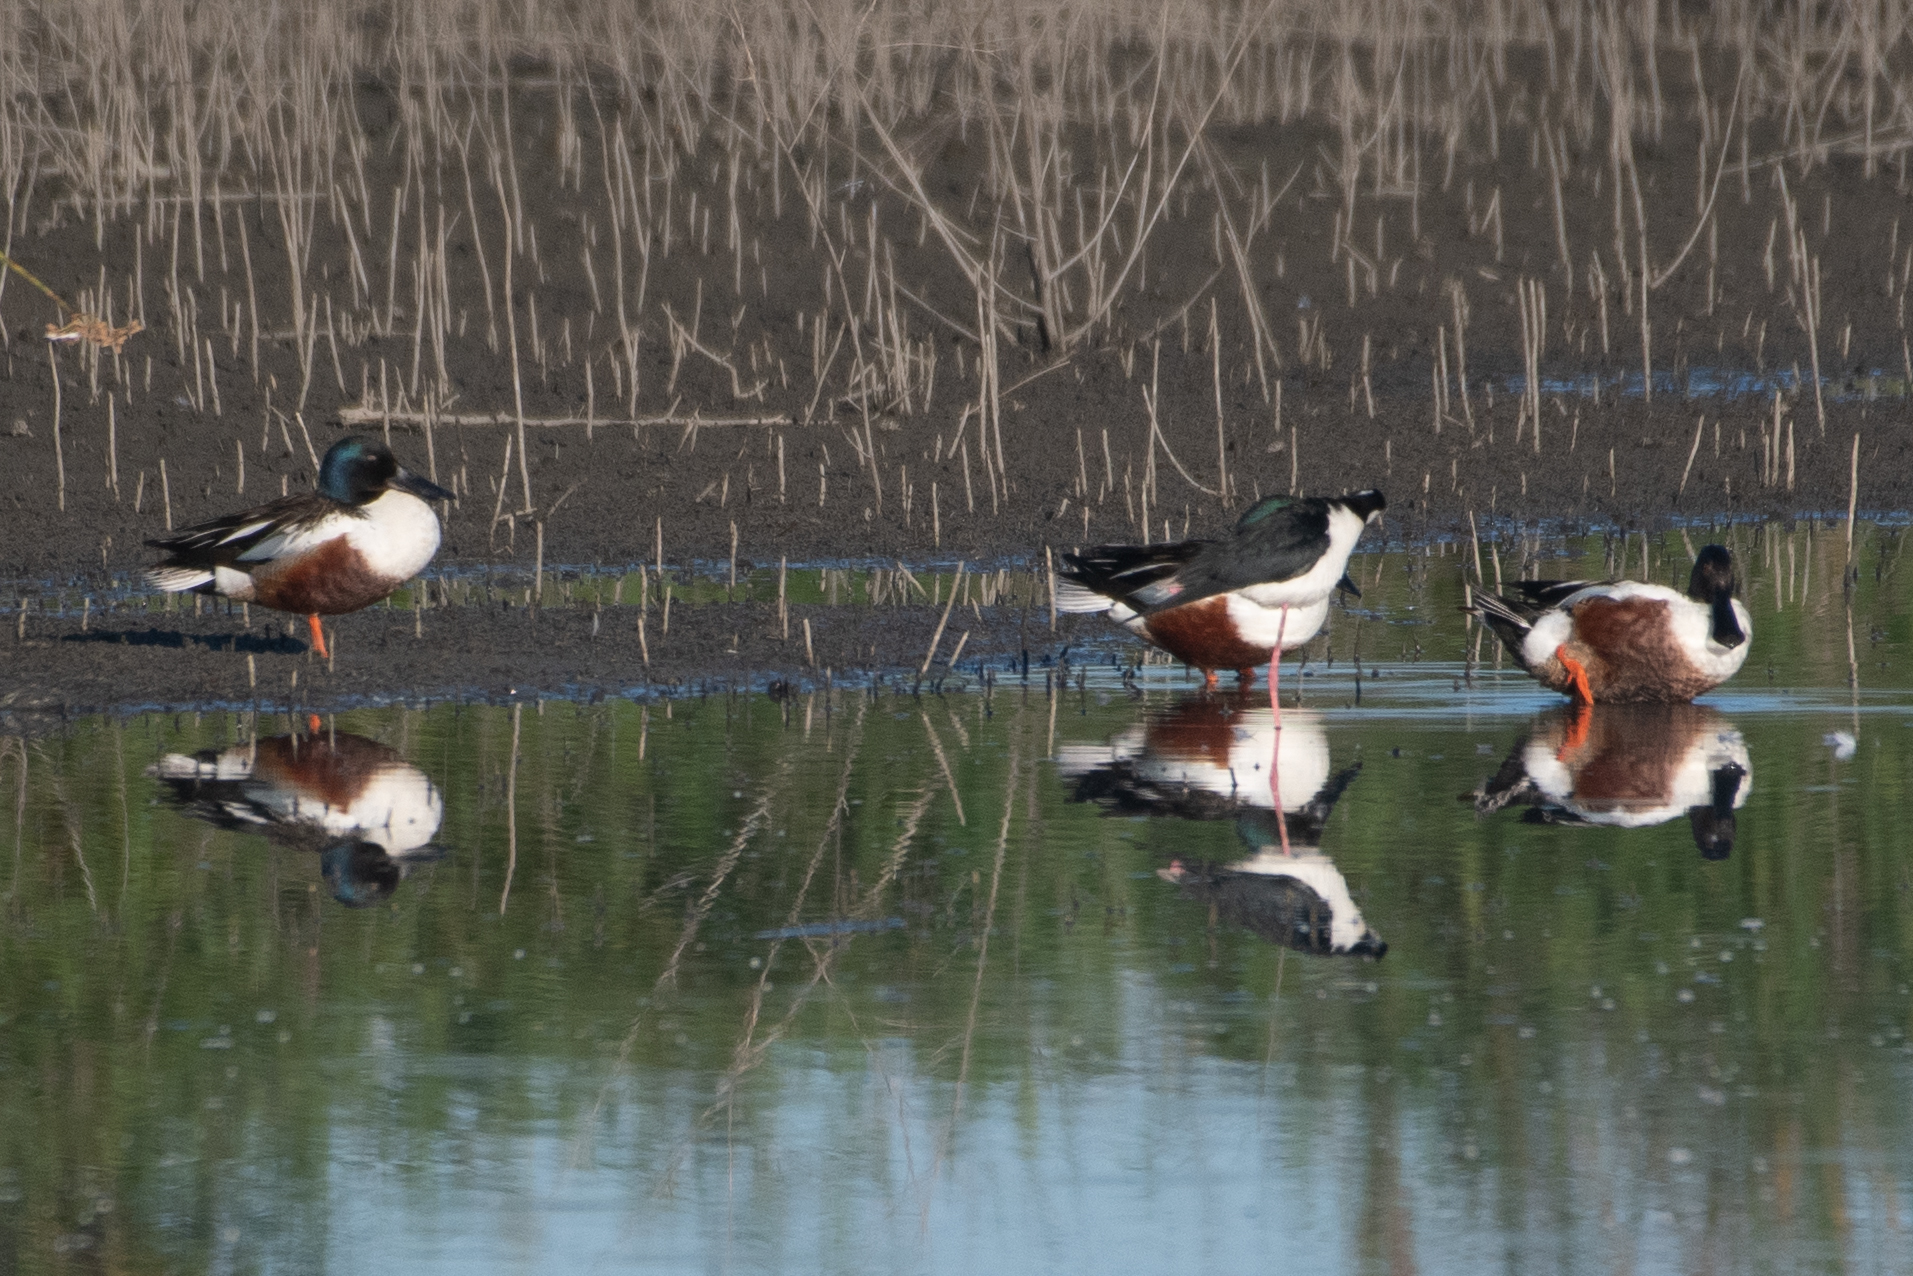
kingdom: Animalia
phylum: Chordata
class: Aves
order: Anseriformes
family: Anatidae
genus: Spatula
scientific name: Spatula clypeata
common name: Northern shoveler
